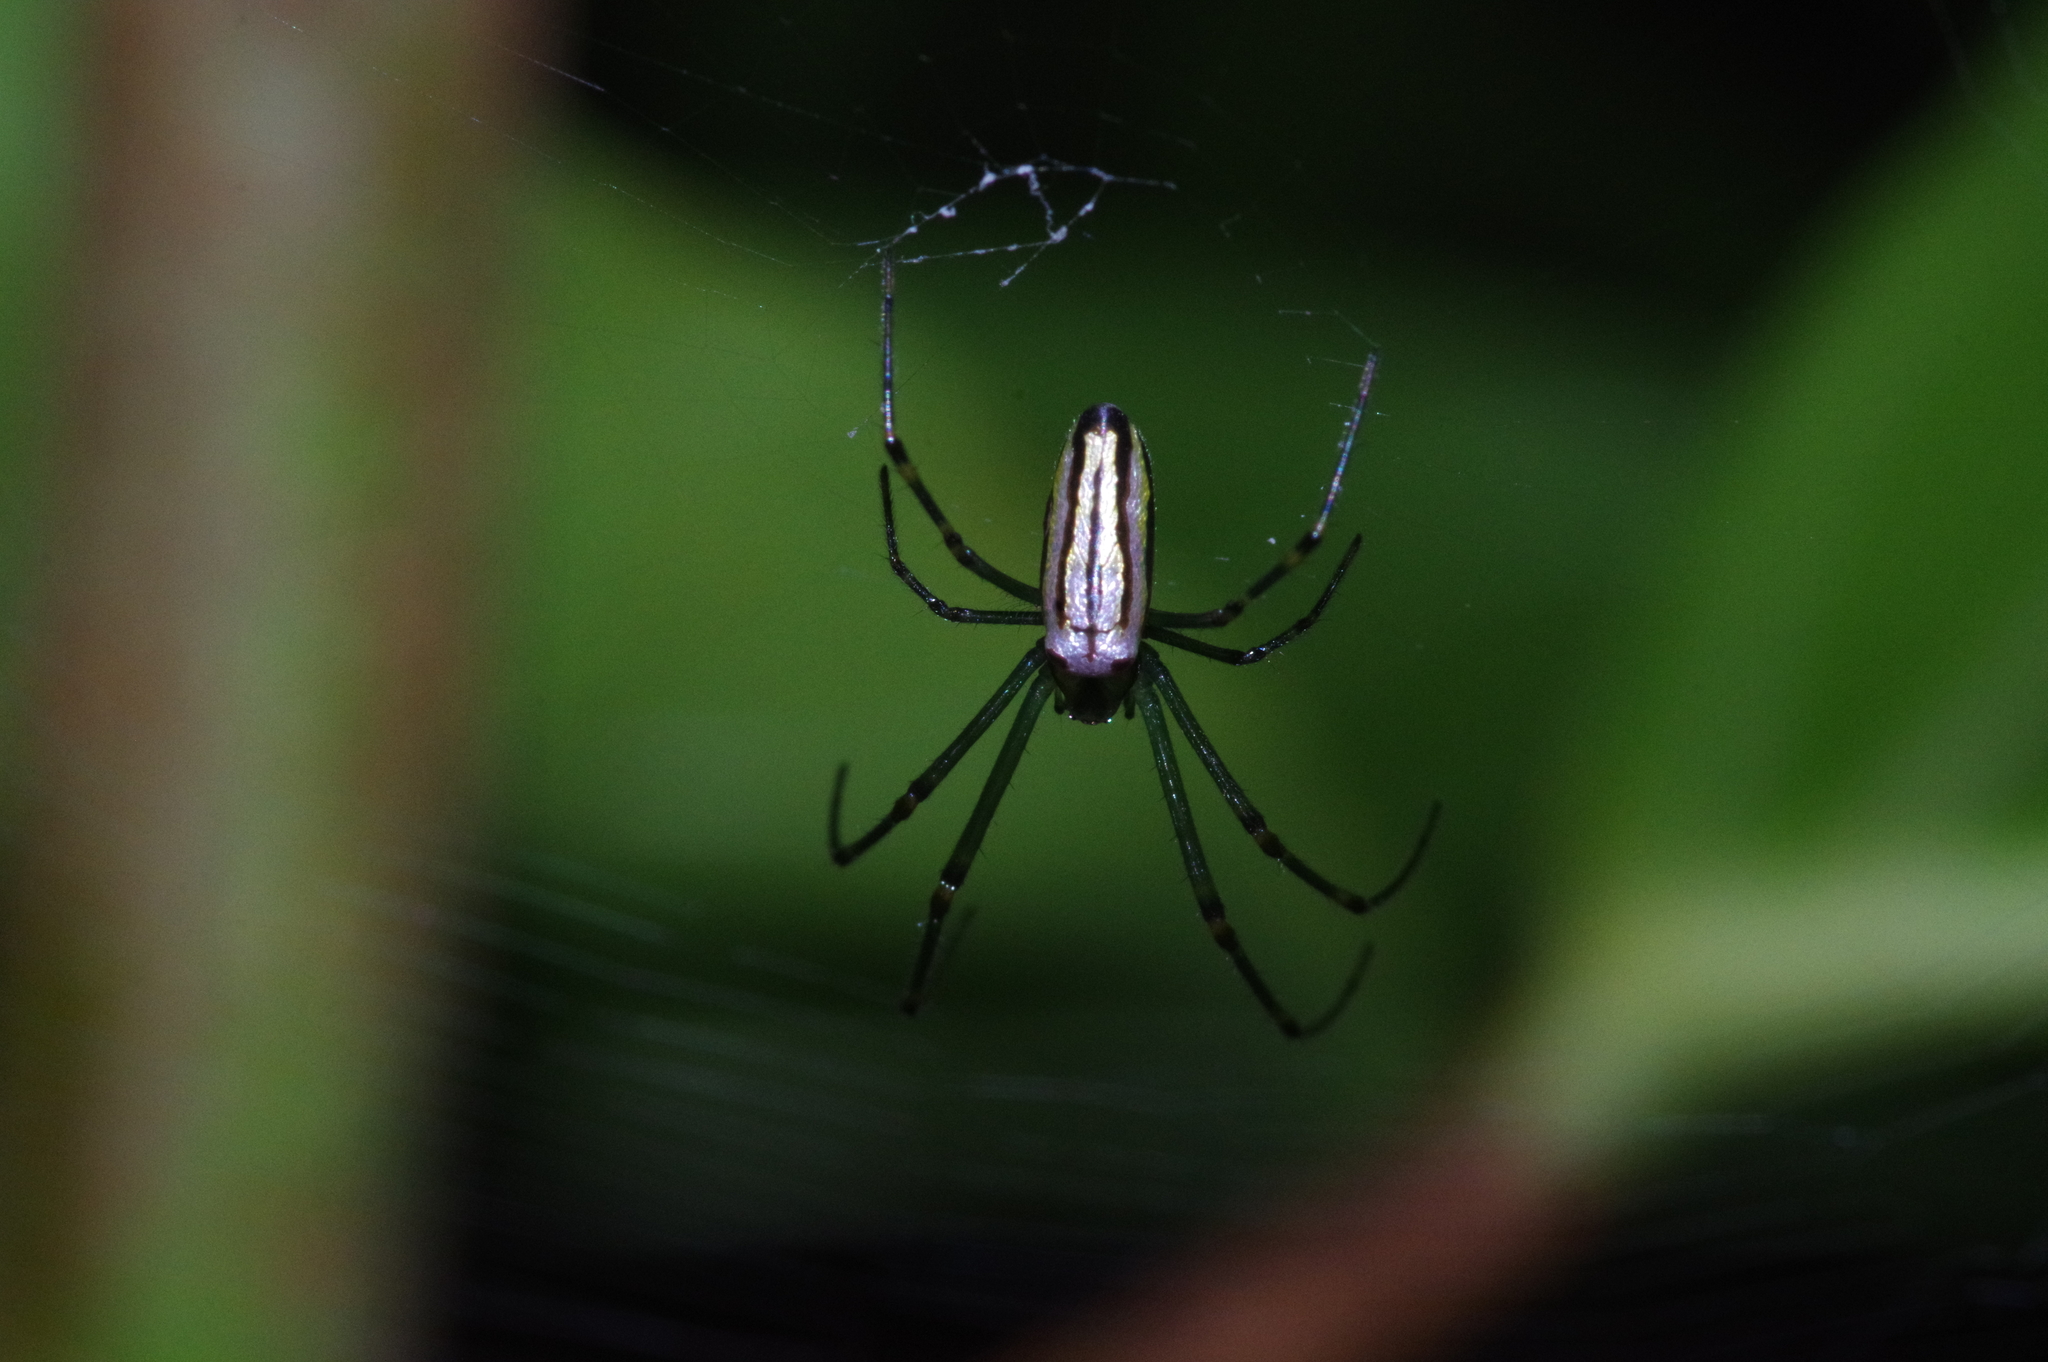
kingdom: Animalia
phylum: Arthropoda
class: Arachnida
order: Araneae
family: Tetragnathidae
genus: Leucauge
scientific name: Leucauge blanda
